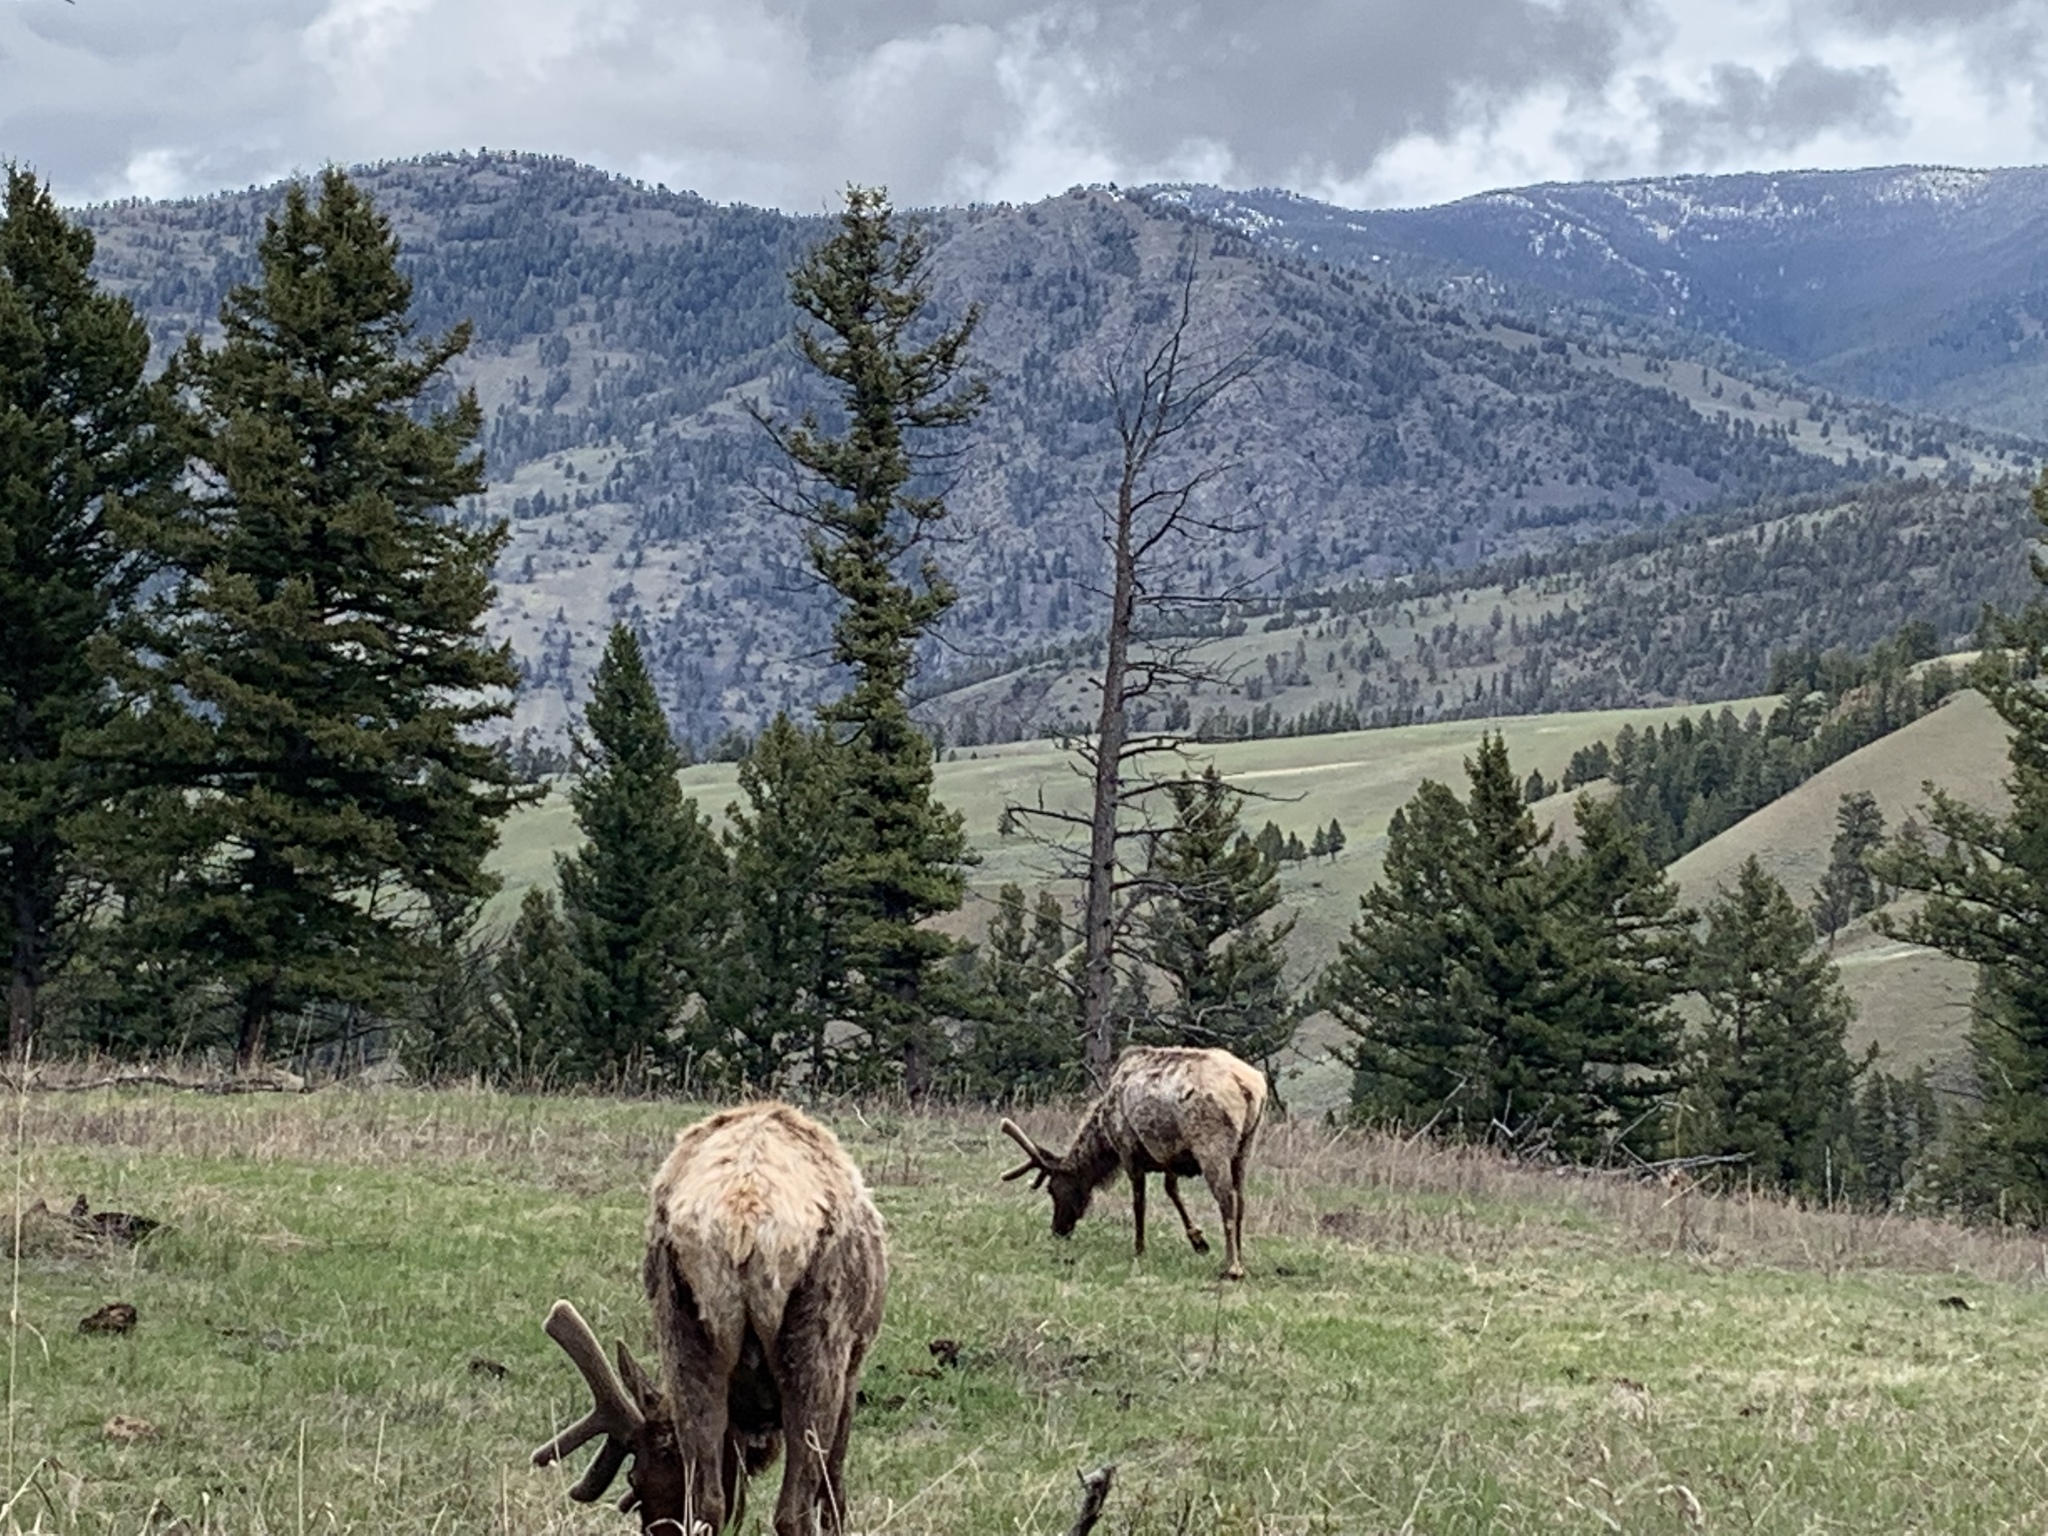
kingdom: Animalia
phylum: Chordata
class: Mammalia
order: Artiodactyla
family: Cervidae
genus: Cervus
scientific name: Cervus elaphus
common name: Red deer
